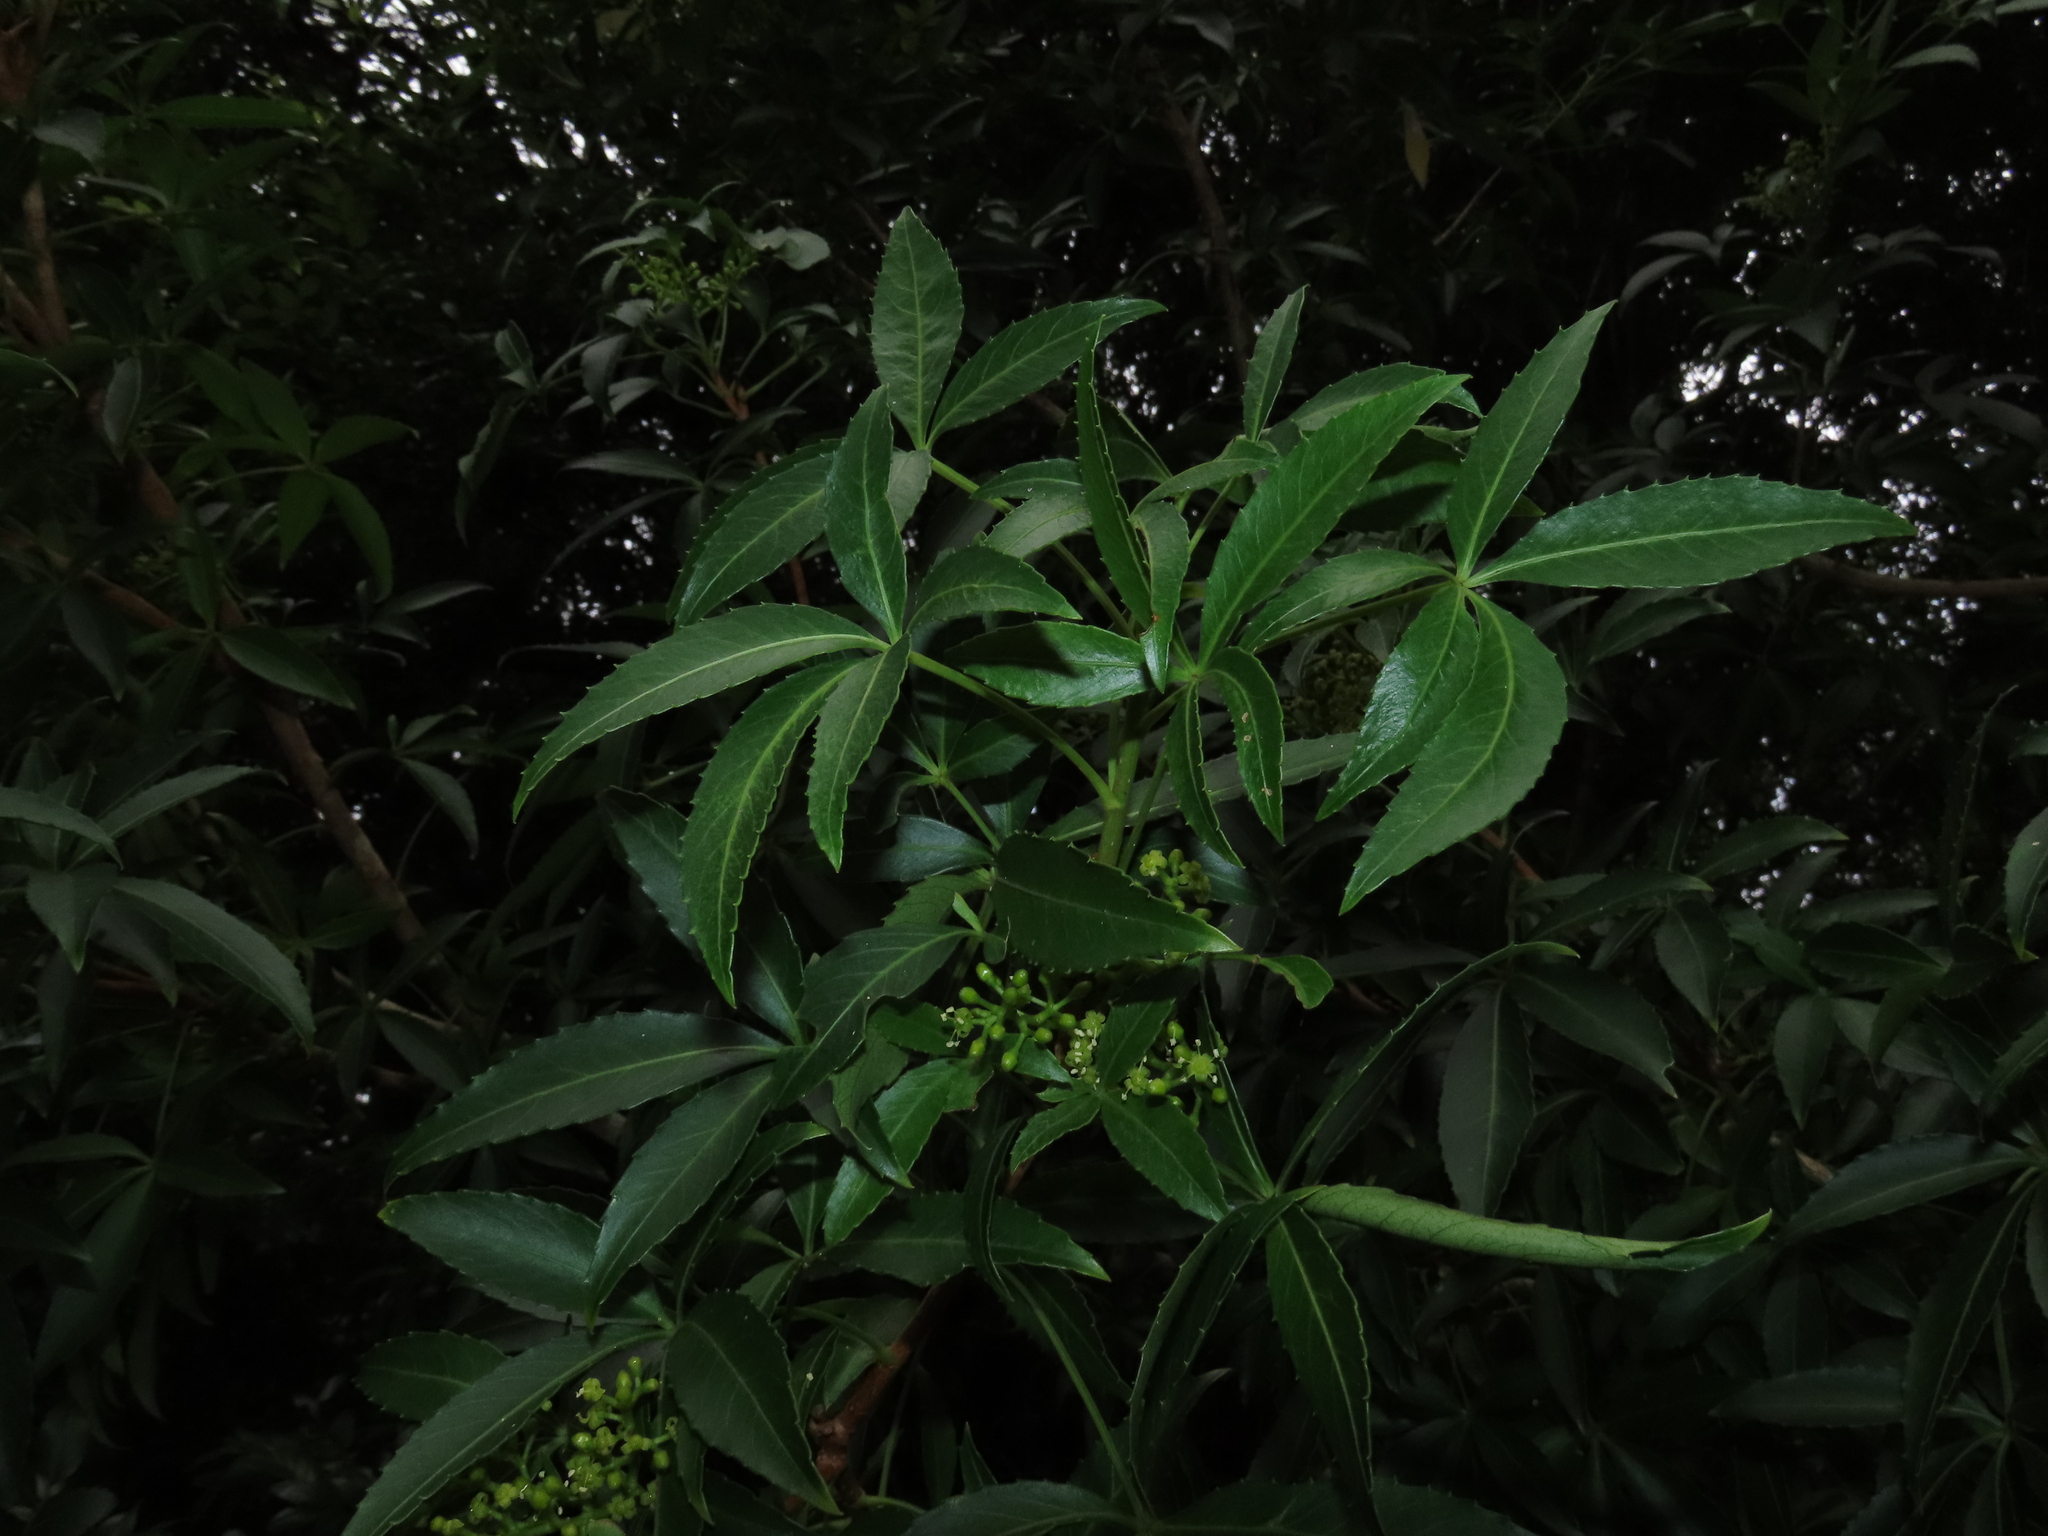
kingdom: Plantae
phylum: Tracheophyta
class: Magnoliopsida
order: Apiales
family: Araliaceae
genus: Raukaua
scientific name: Raukaua laetevirens
